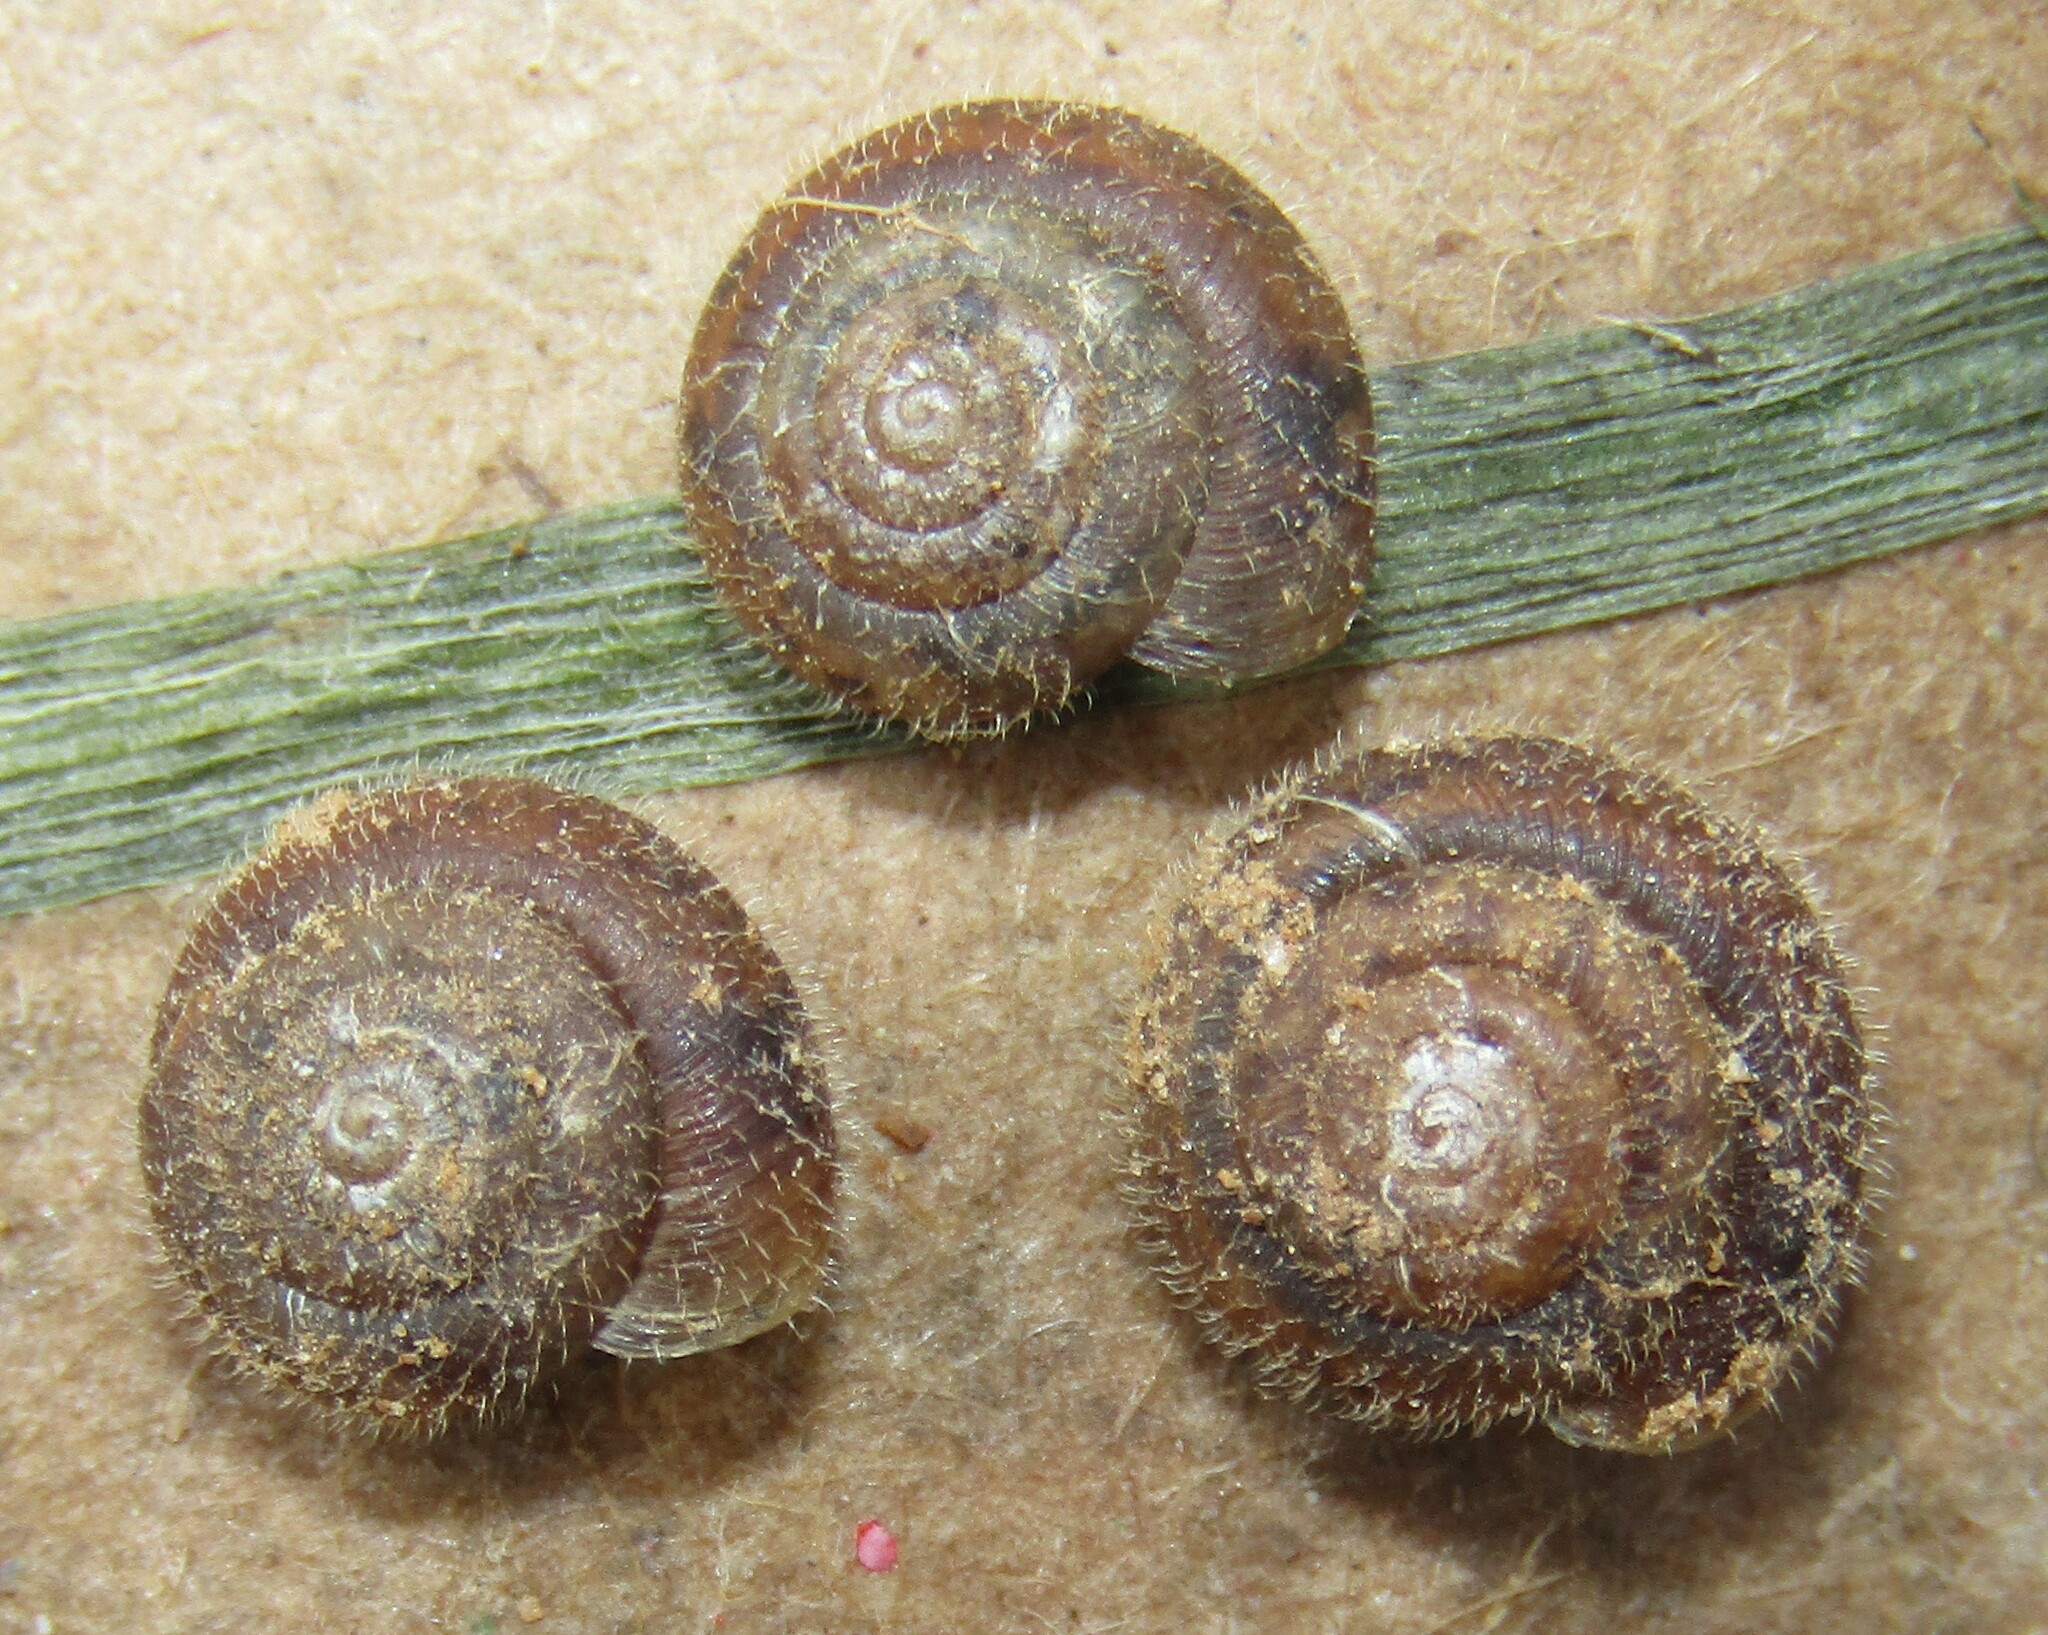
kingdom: Animalia
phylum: Mollusca
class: Gastropoda
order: Stylommatophora
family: Hygromiidae
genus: Trochulus
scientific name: Trochulus hispidus
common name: Hairy snail
